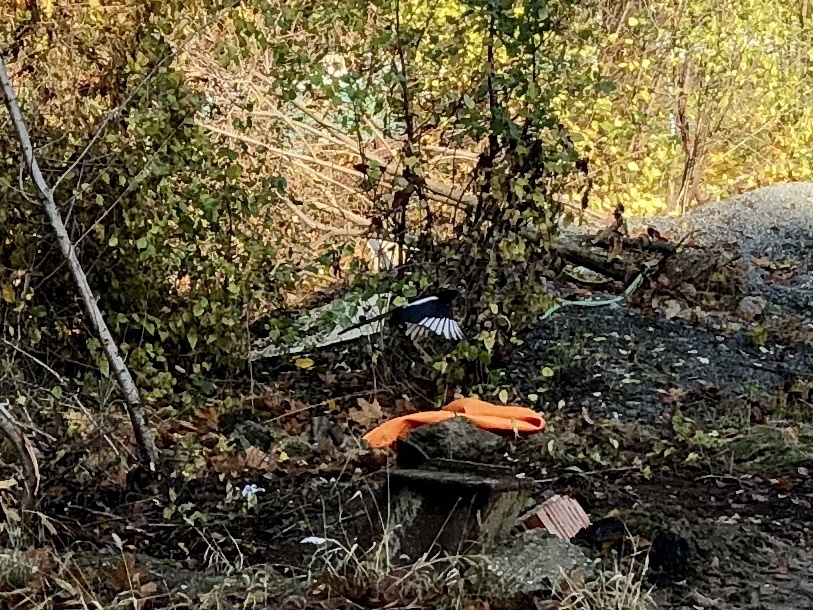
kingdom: Animalia
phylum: Chordata
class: Aves
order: Passeriformes
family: Corvidae
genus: Pica
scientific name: Pica pica
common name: Eurasian magpie
